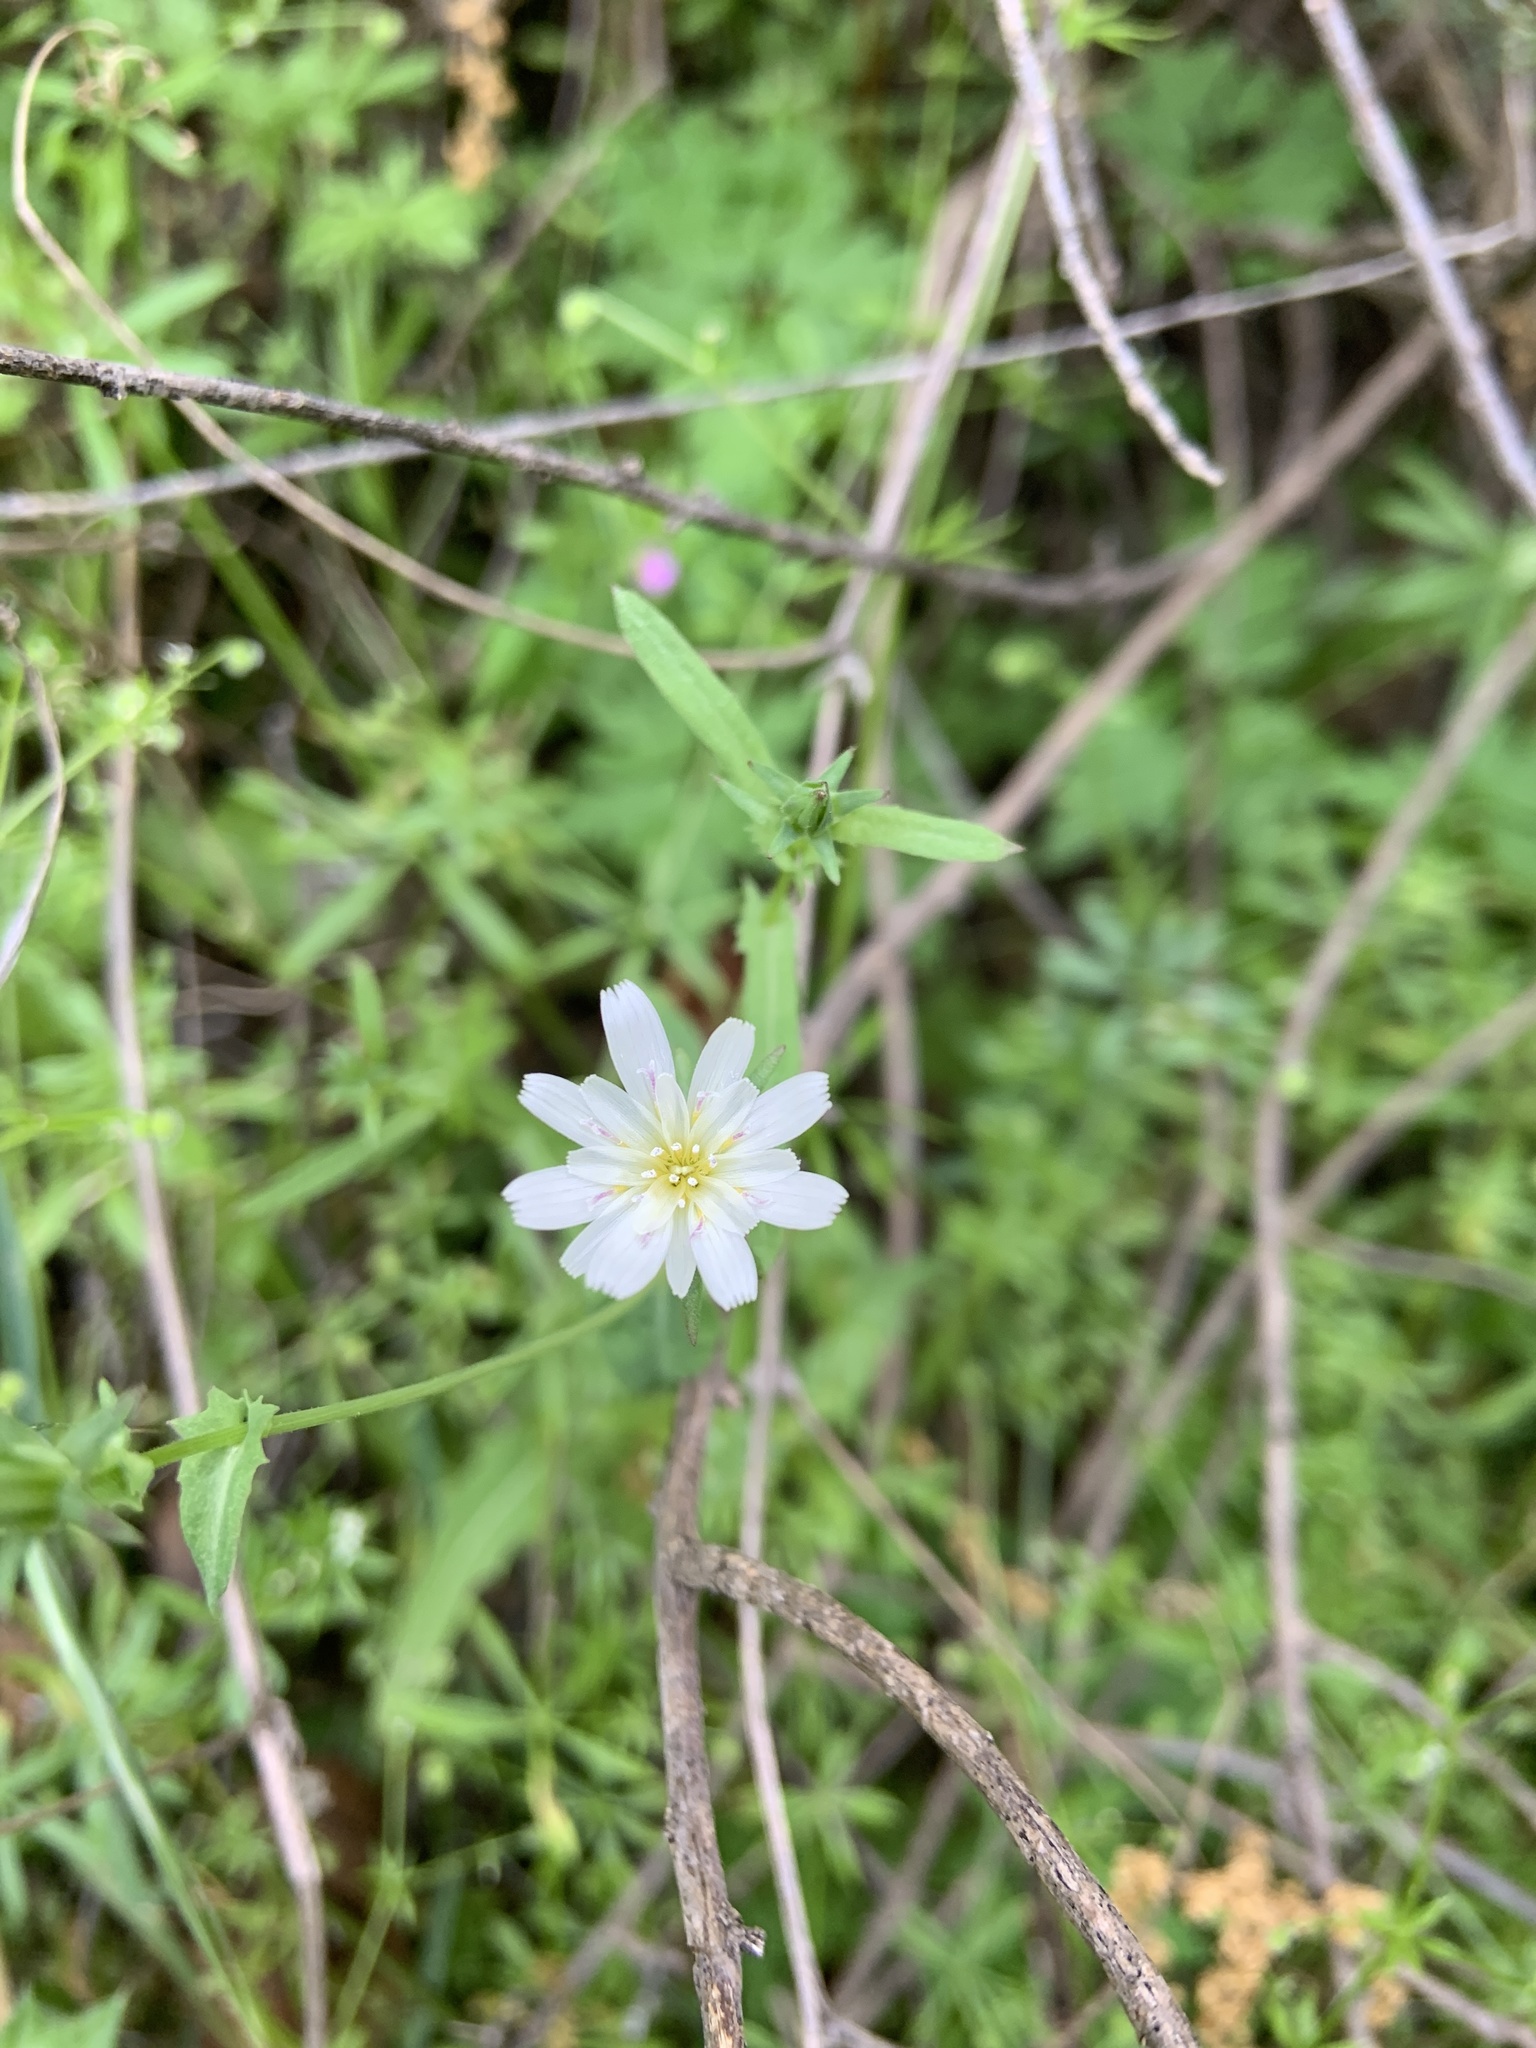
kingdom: Plantae
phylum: Tracheophyta
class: Magnoliopsida
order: Asterales
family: Asteraceae
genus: Rafinesquia
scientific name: Rafinesquia californica
